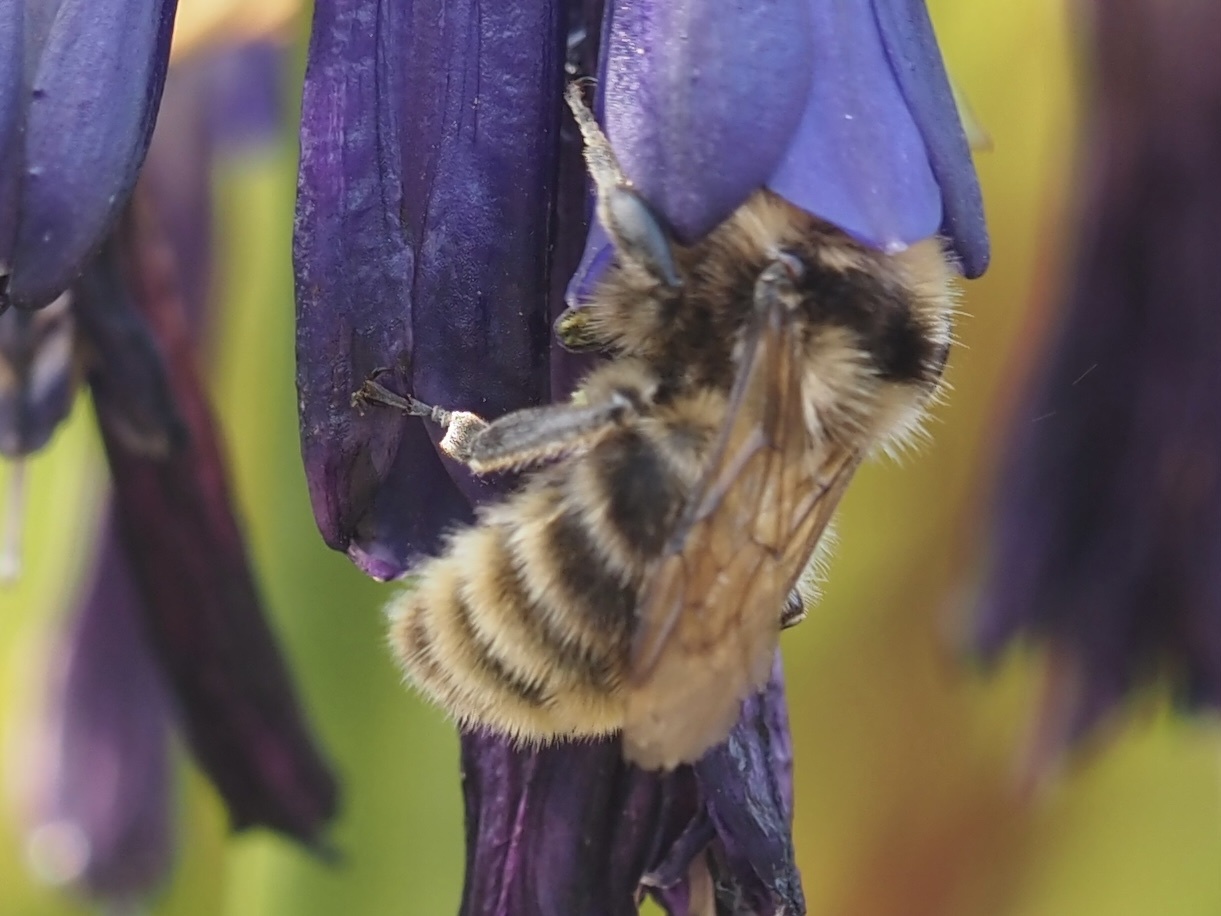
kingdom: Animalia
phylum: Arthropoda
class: Insecta
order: Hymenoptera
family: Apidae
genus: Bombus
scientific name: Bombus californicus
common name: California bumble bee
